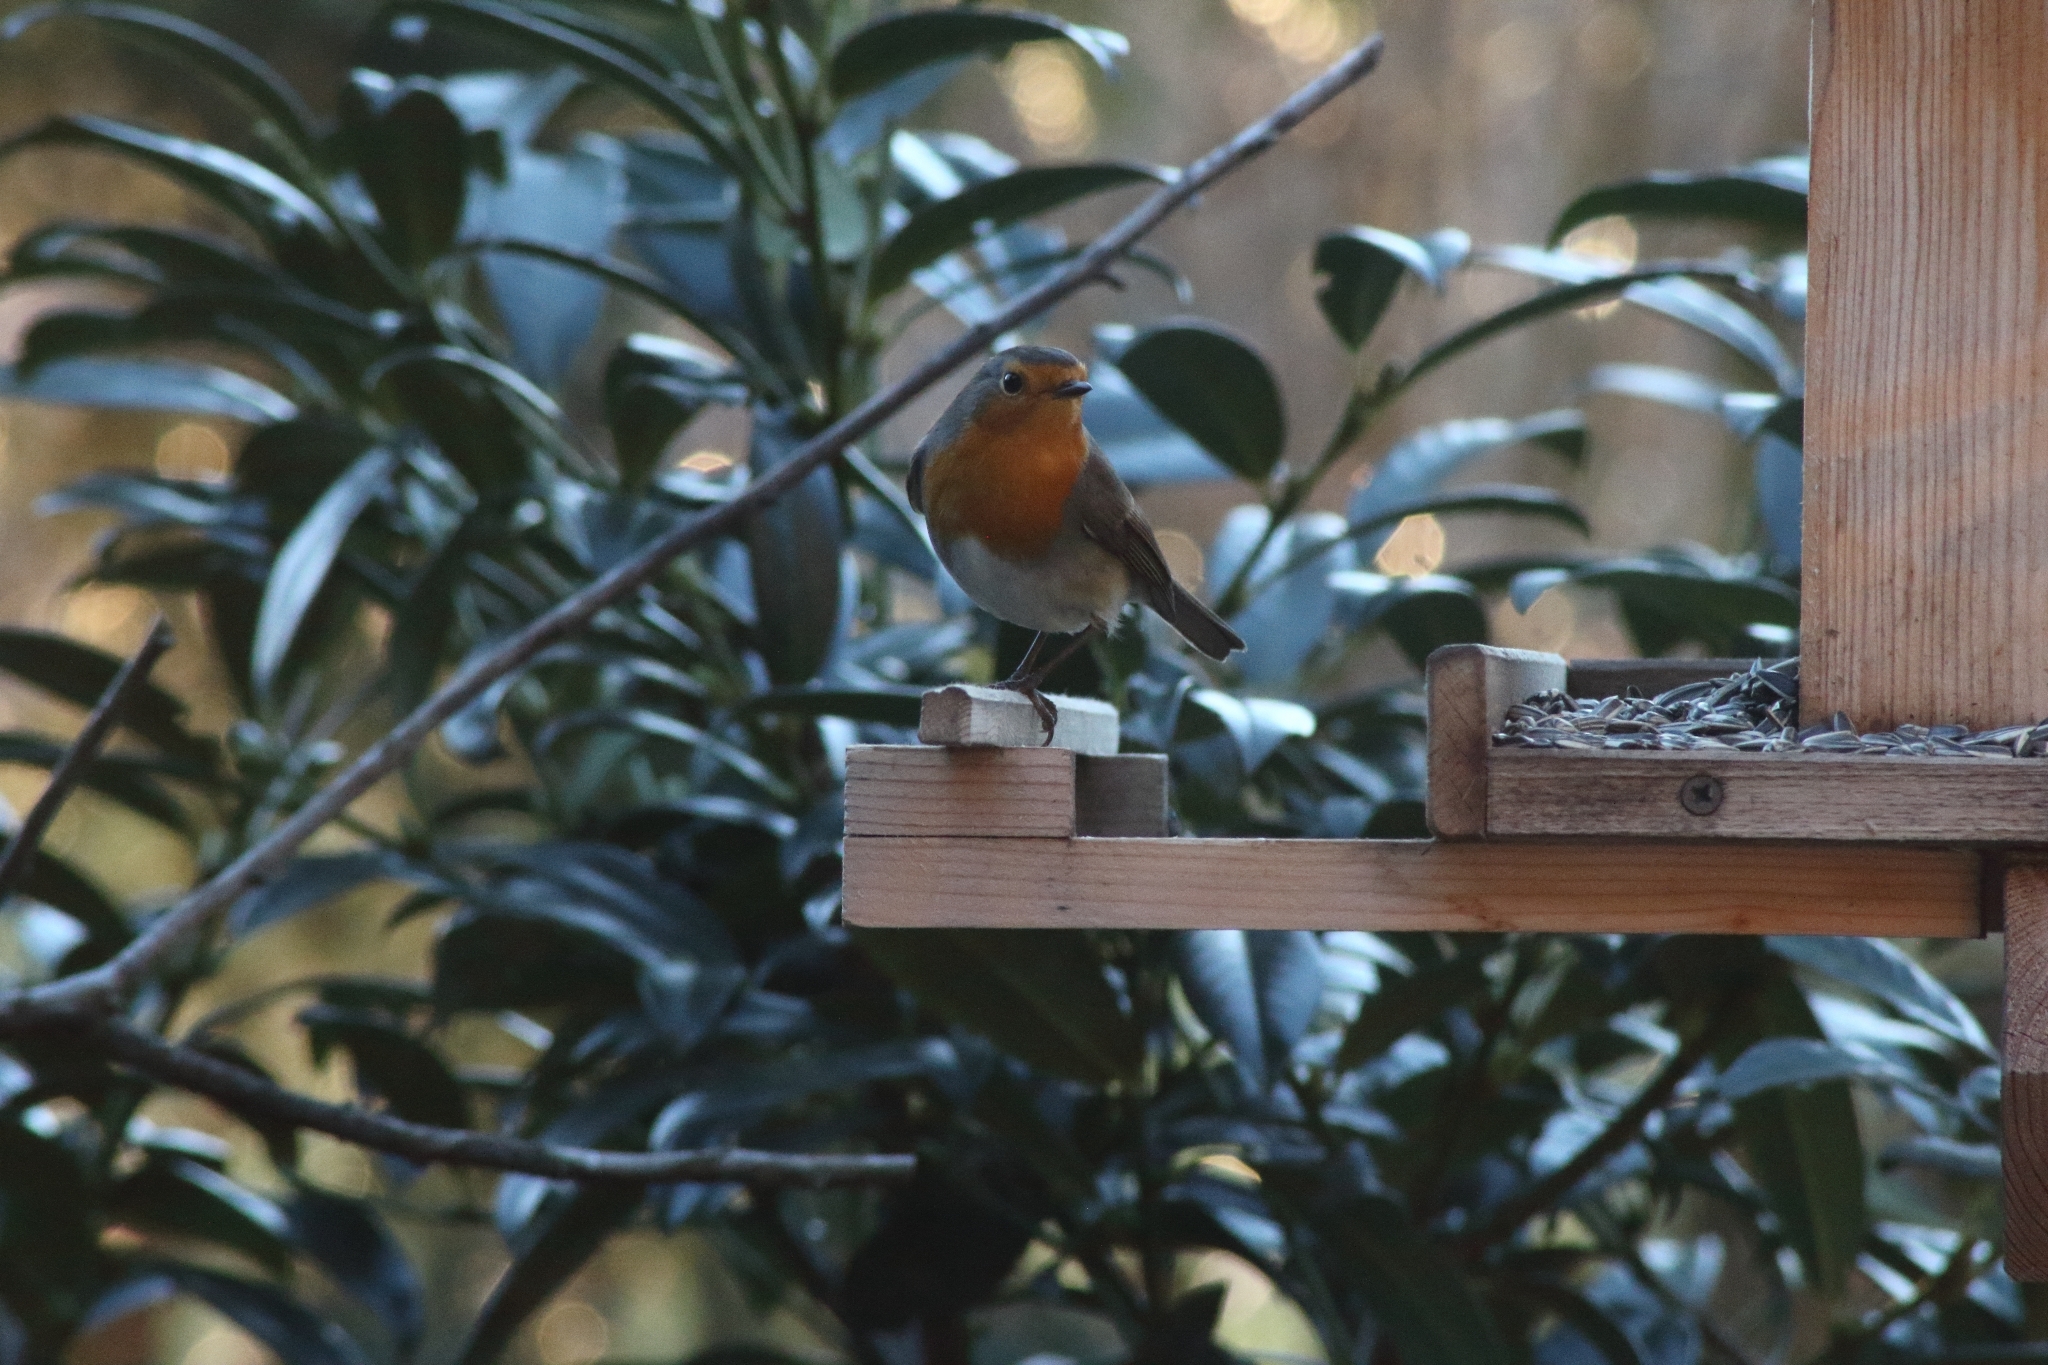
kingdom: Animalia
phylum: Chordata
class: Aves
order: Passeriformes
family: Muscicapidae
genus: Erithacus
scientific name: Erithacus rubecula
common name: European robin
